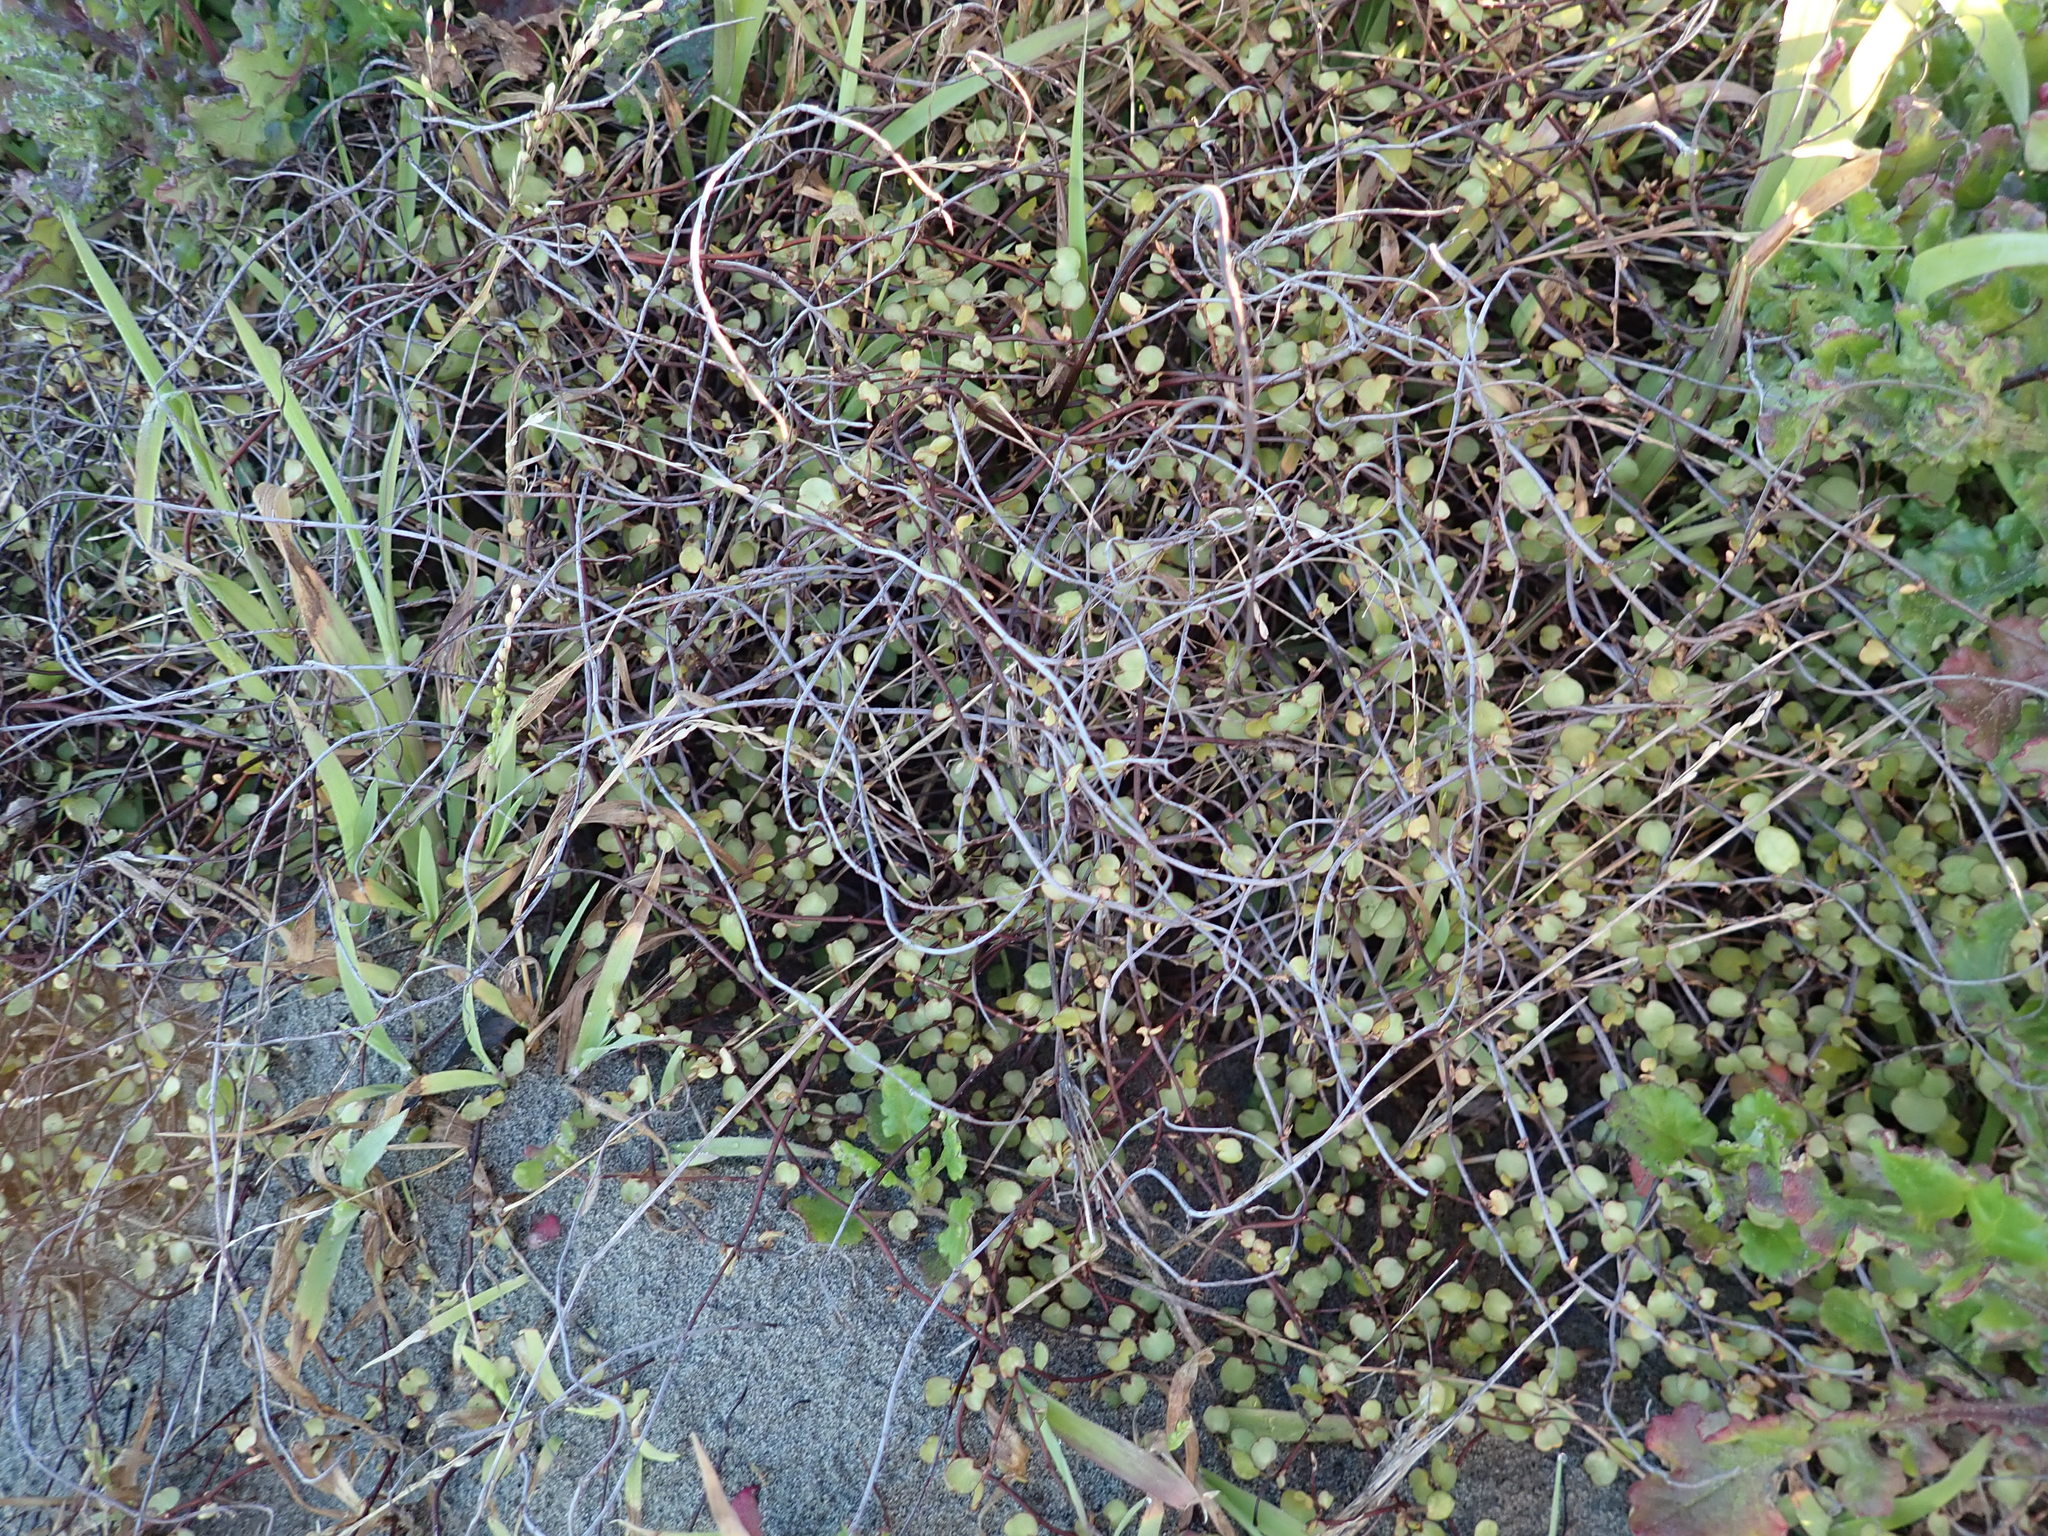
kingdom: Plantae
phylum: Tracheophyta
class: Magnoliopsida
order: Caryophyllales
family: Polygonaceae
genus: Muehlenbeckia
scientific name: Muehlenbeckia complexa
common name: Wireplant
